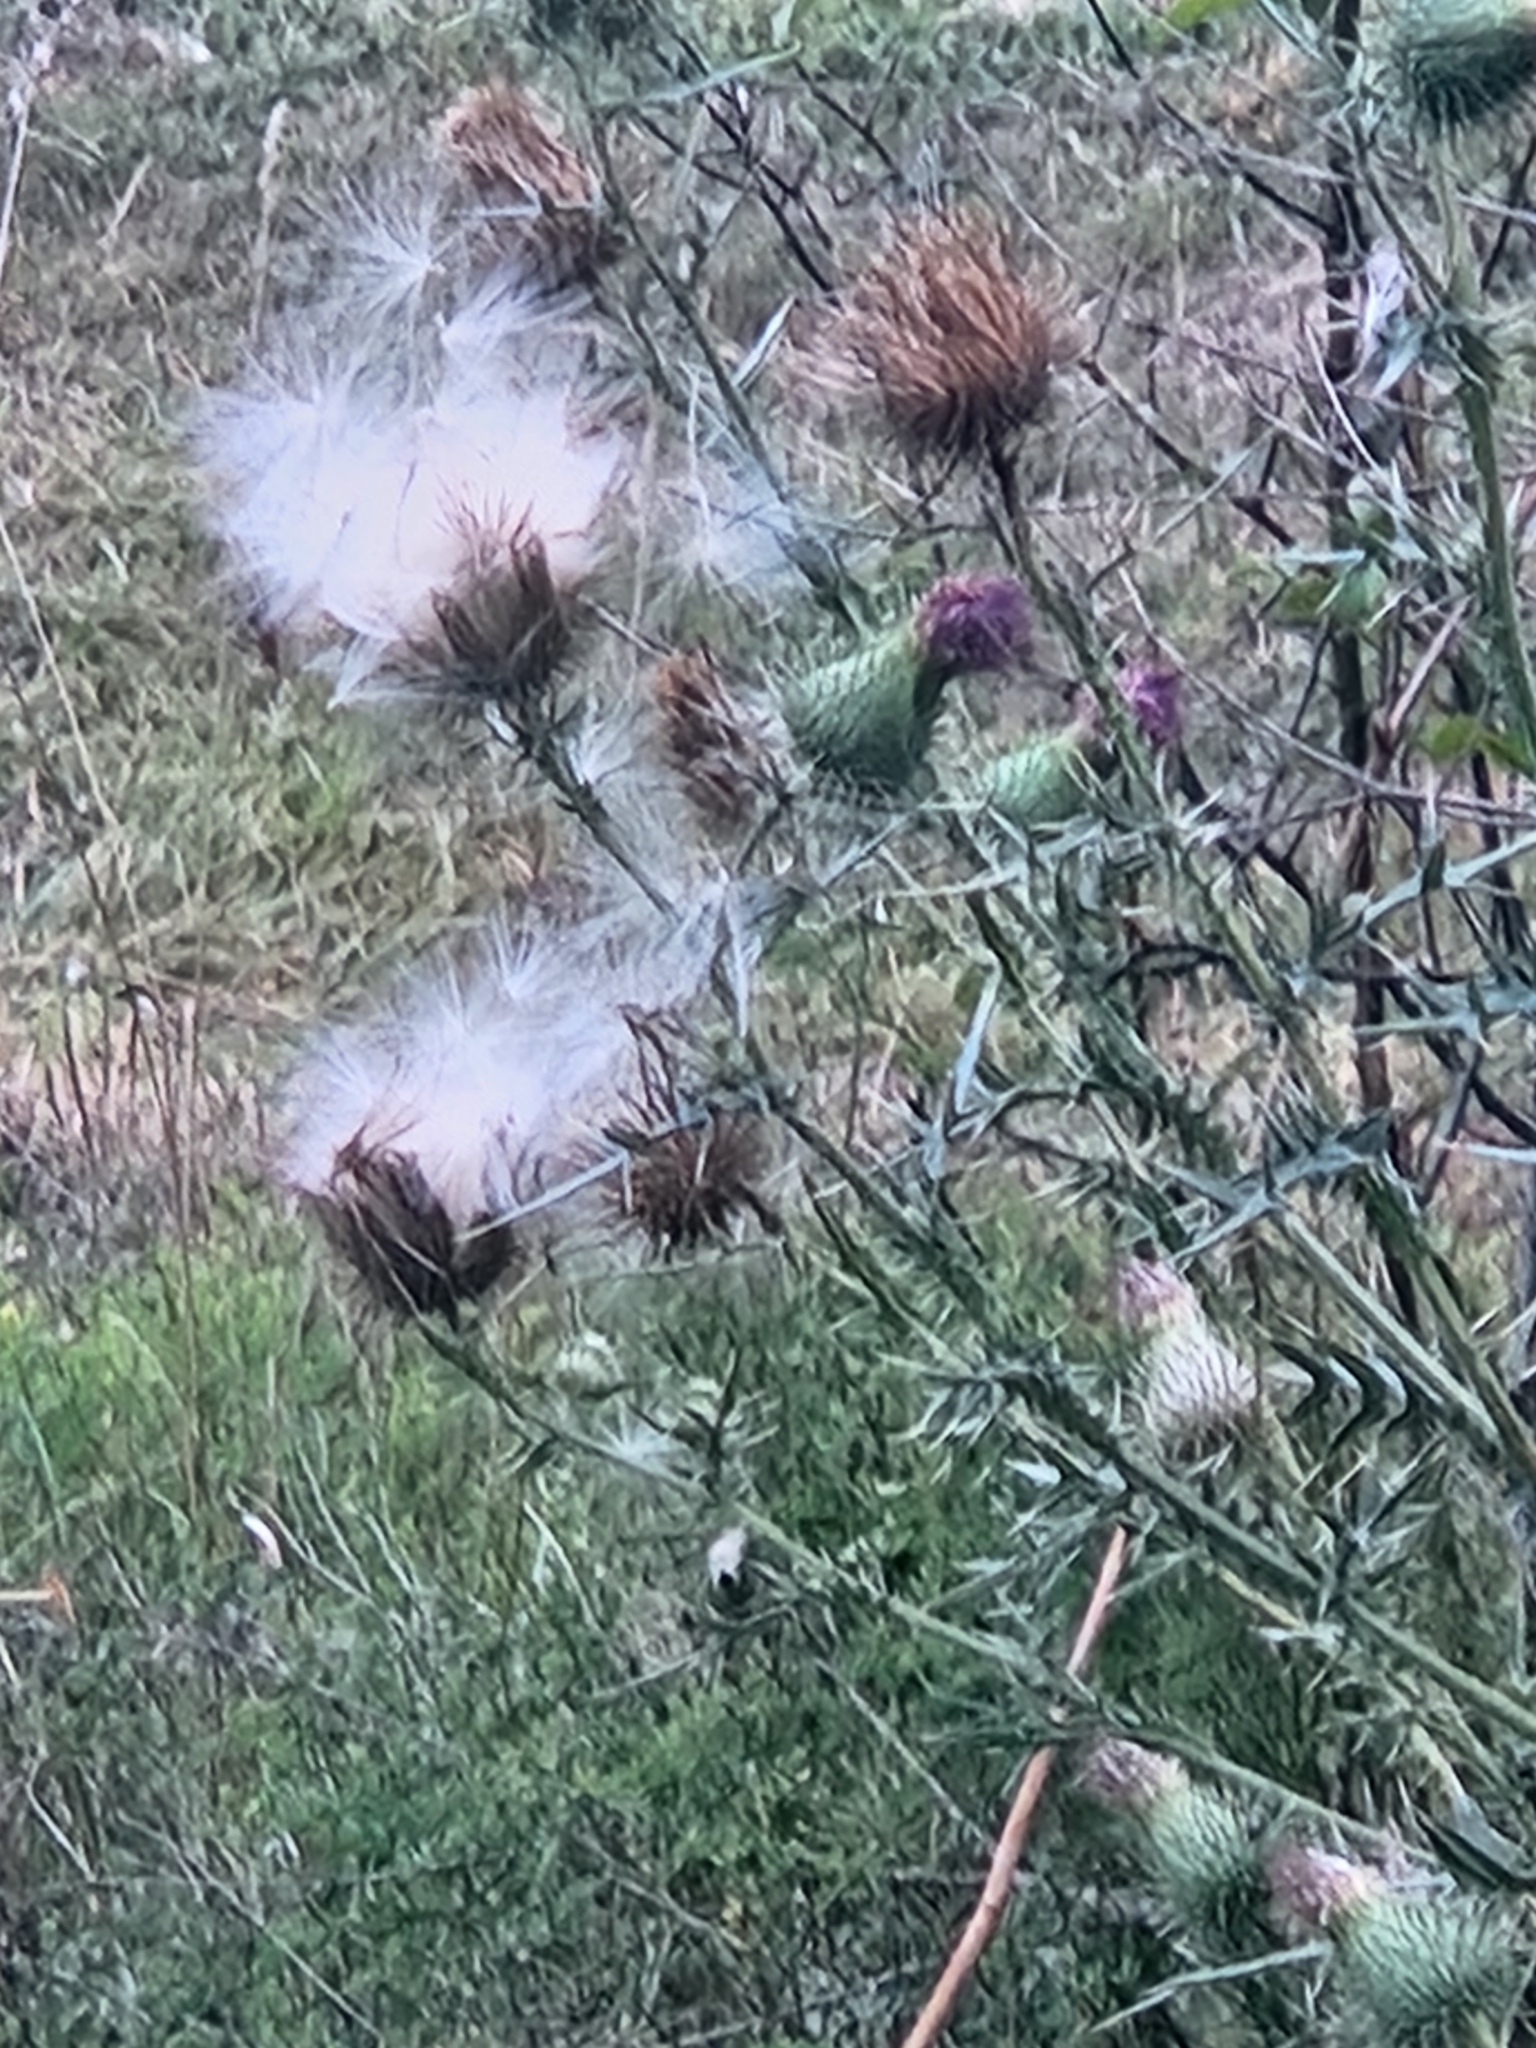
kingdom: Plantae
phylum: Tracheophyta
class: Magnoliopsida
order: Asterales
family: Asteraceae
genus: Cirsium
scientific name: Cirsium vulgare
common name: Bull thistle
